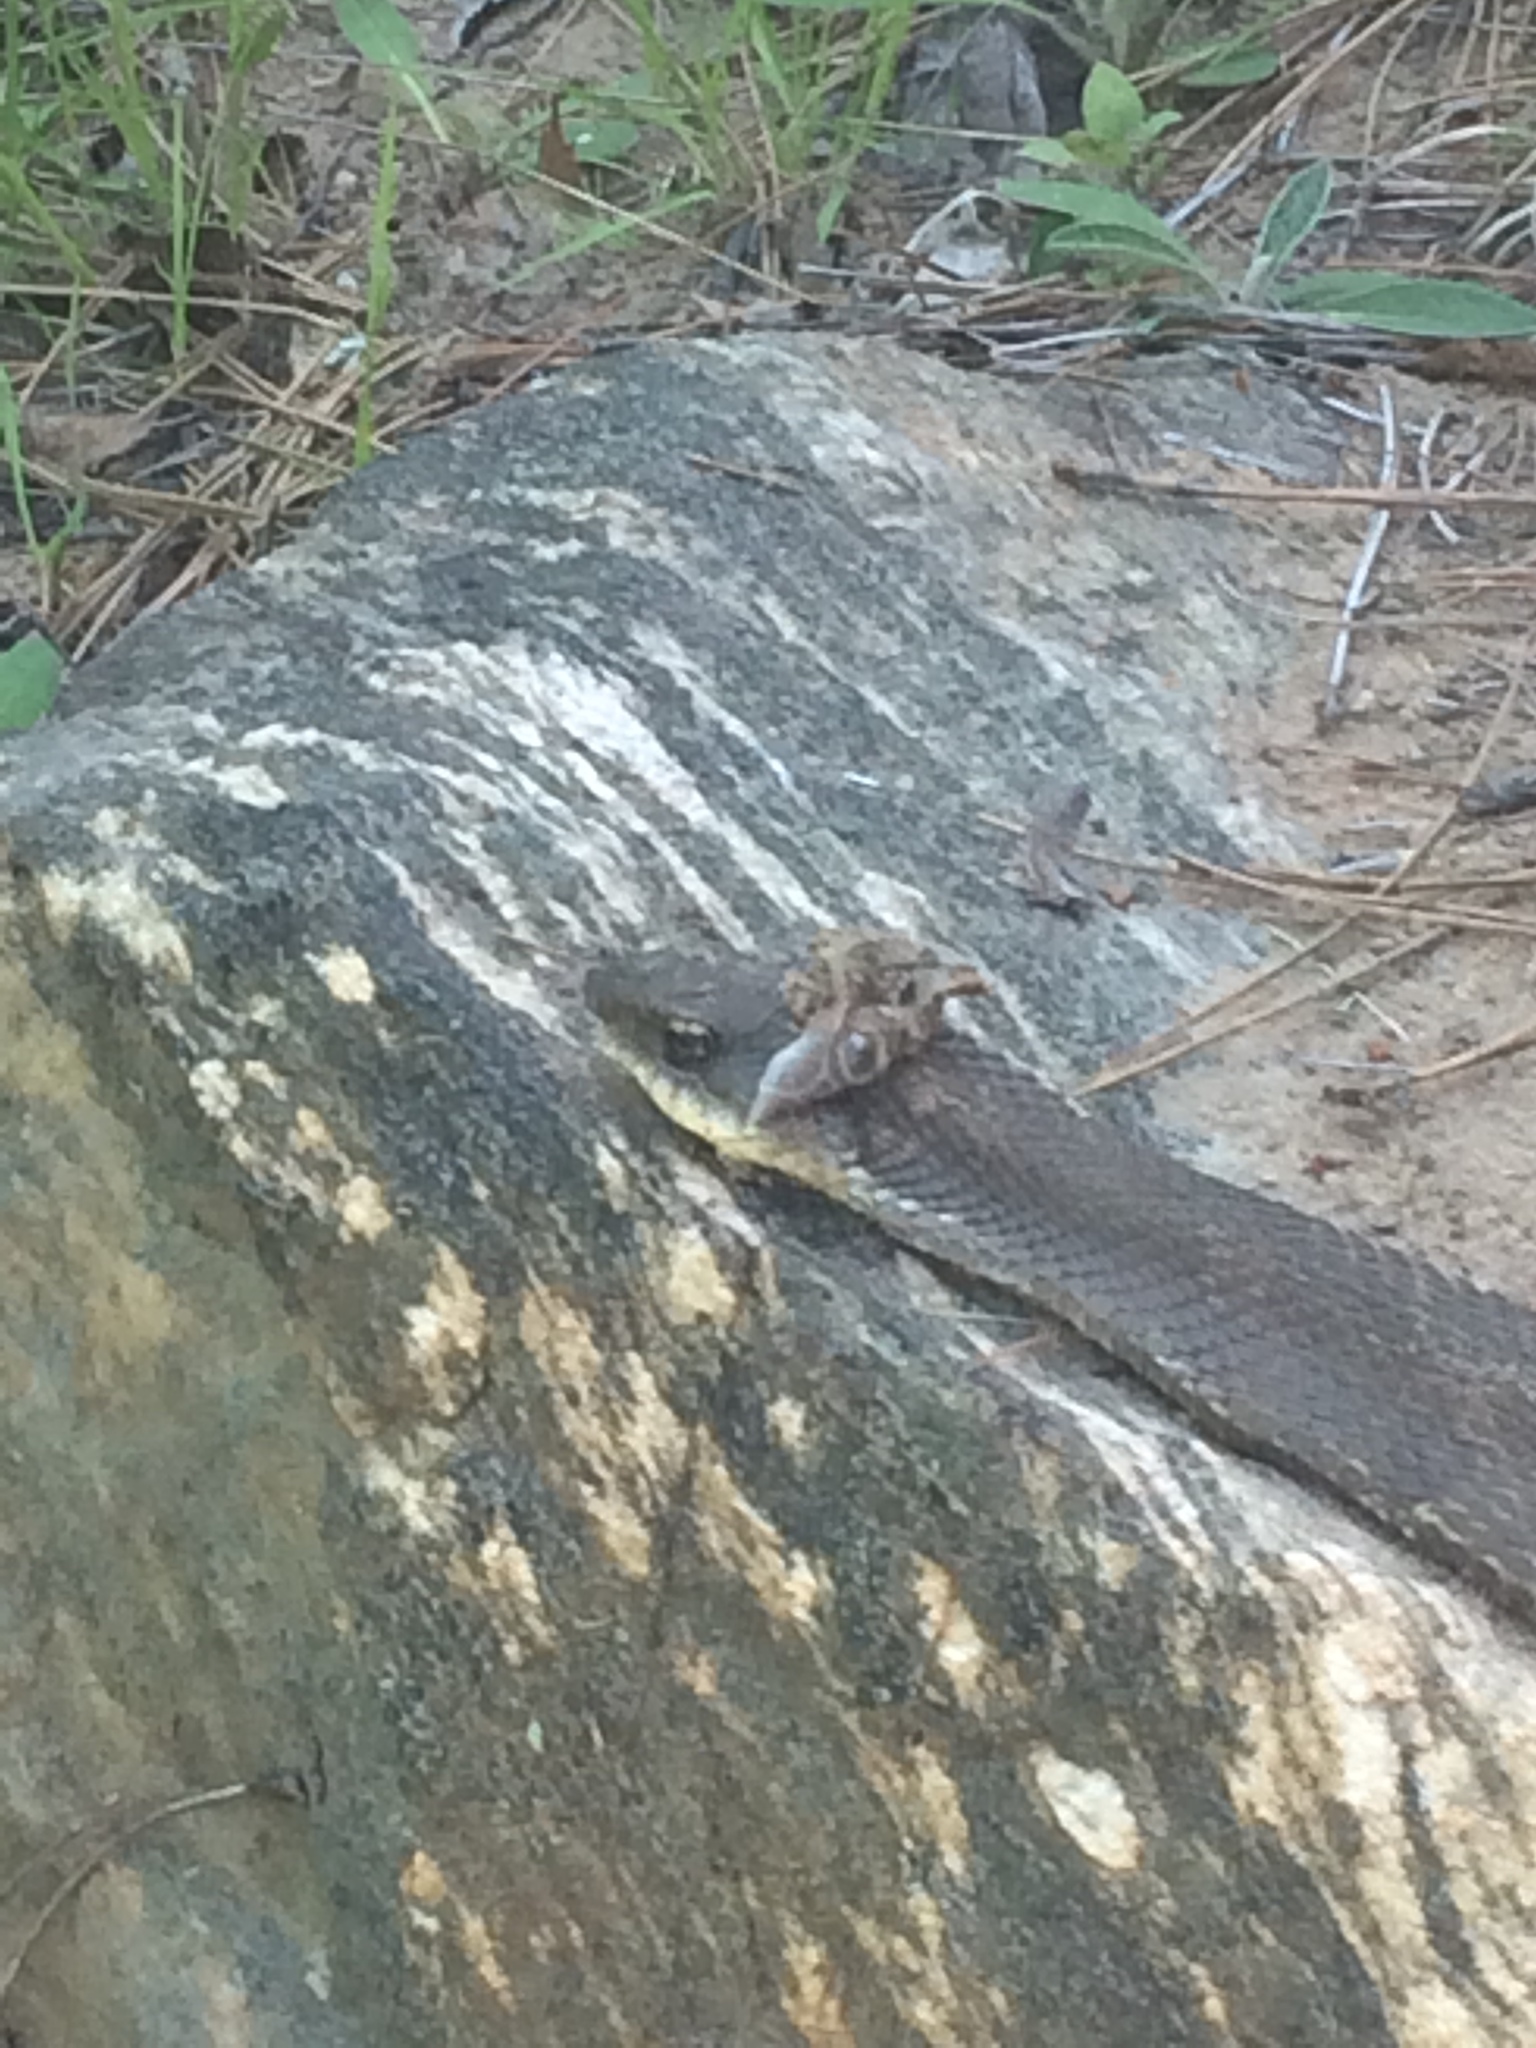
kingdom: Animalia
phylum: Chordata
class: Squamata
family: Colubridae
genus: Heterodon
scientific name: Heterodon platirhinos
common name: Eastern hognose snake
